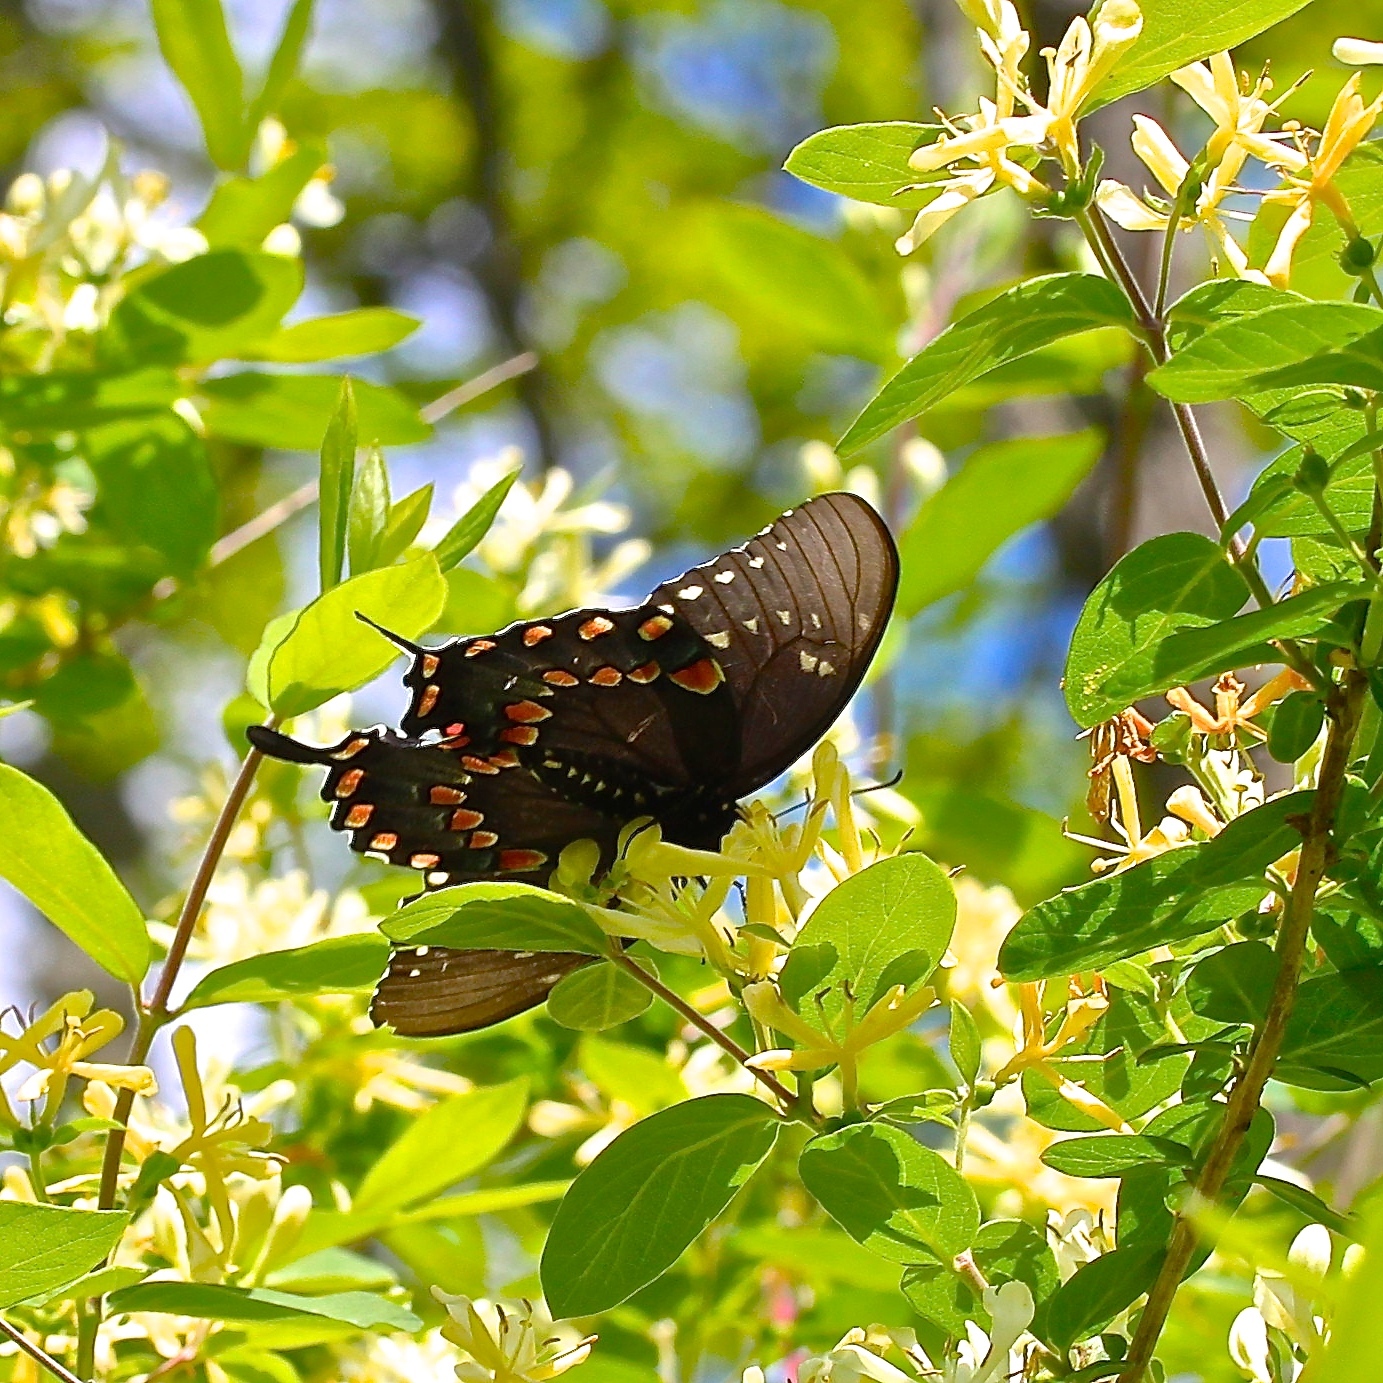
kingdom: Animalia
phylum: Arthropoda
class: Insecta
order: Lepidoptera
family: Papilionidae
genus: Papilio
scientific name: Papilio troilus
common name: Spicebush swallowtail
